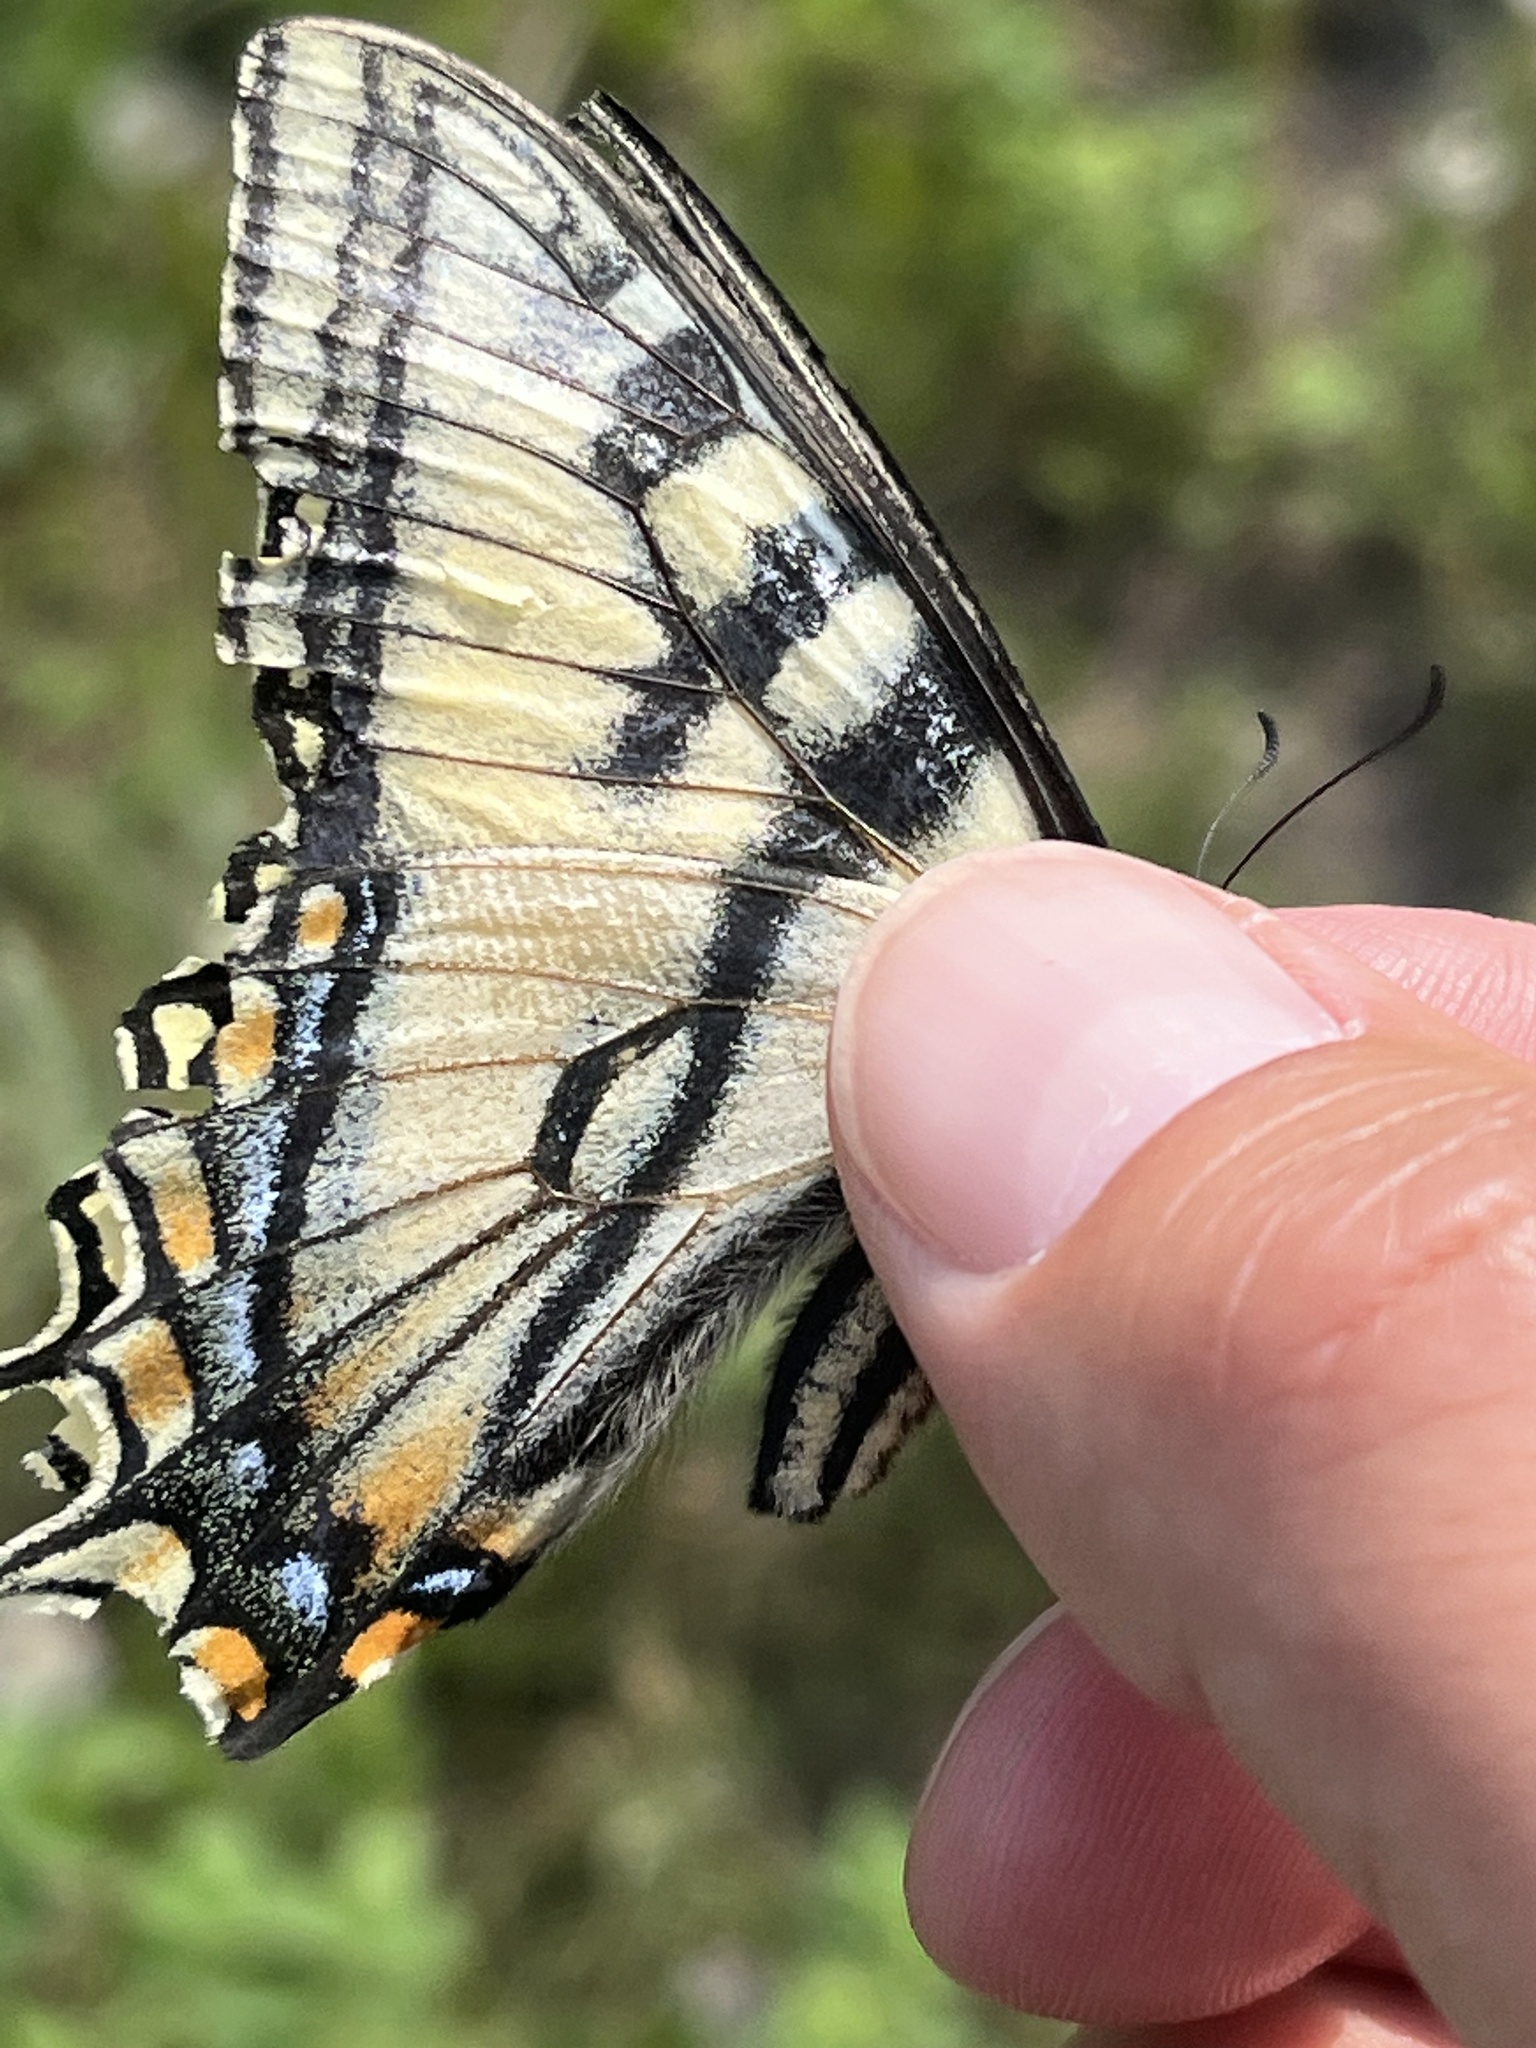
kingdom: Animalia
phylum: Arthropoda
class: Insecta
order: Lepidoptera
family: Papilionidae
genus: Papilio
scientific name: Papilio canadensis
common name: Canadian tiger swallowtail
